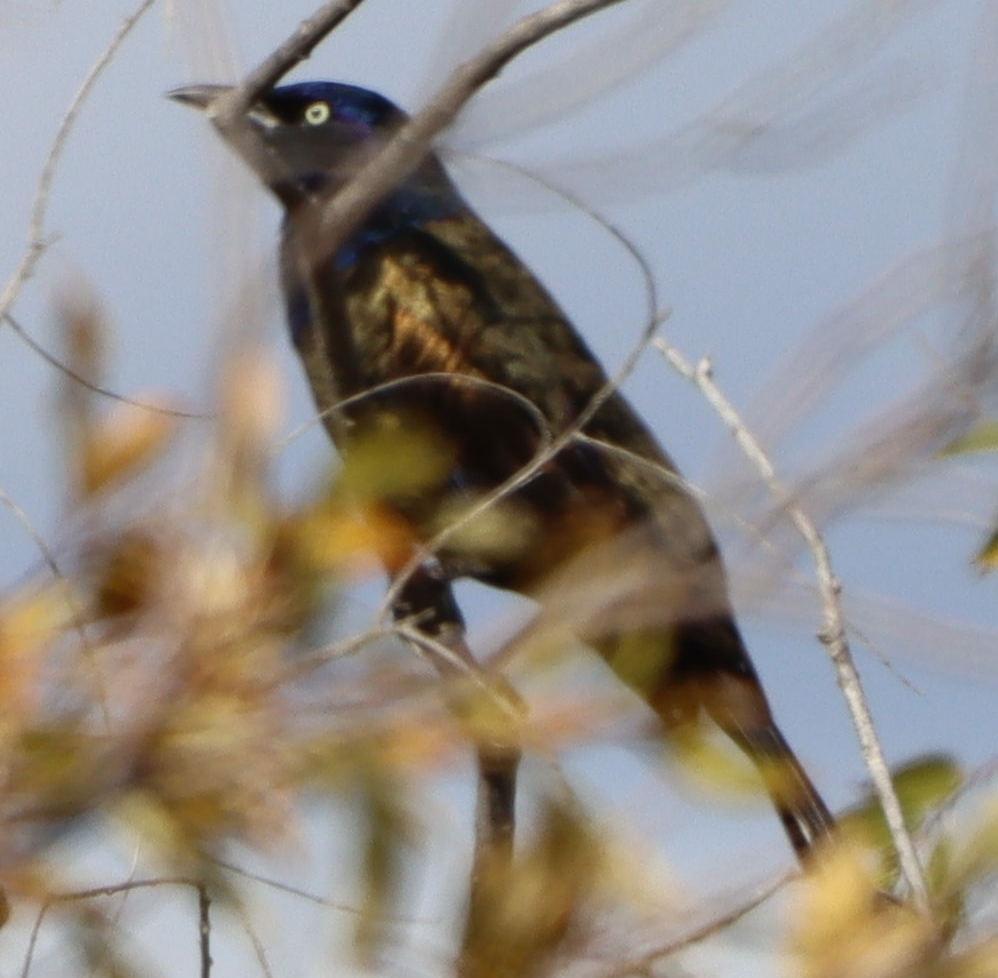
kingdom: Animalia
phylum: Chordata
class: Aves
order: Passeriformes
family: Icteridae
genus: Quiscalus
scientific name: Quiscalus quiscula
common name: Common grackle
